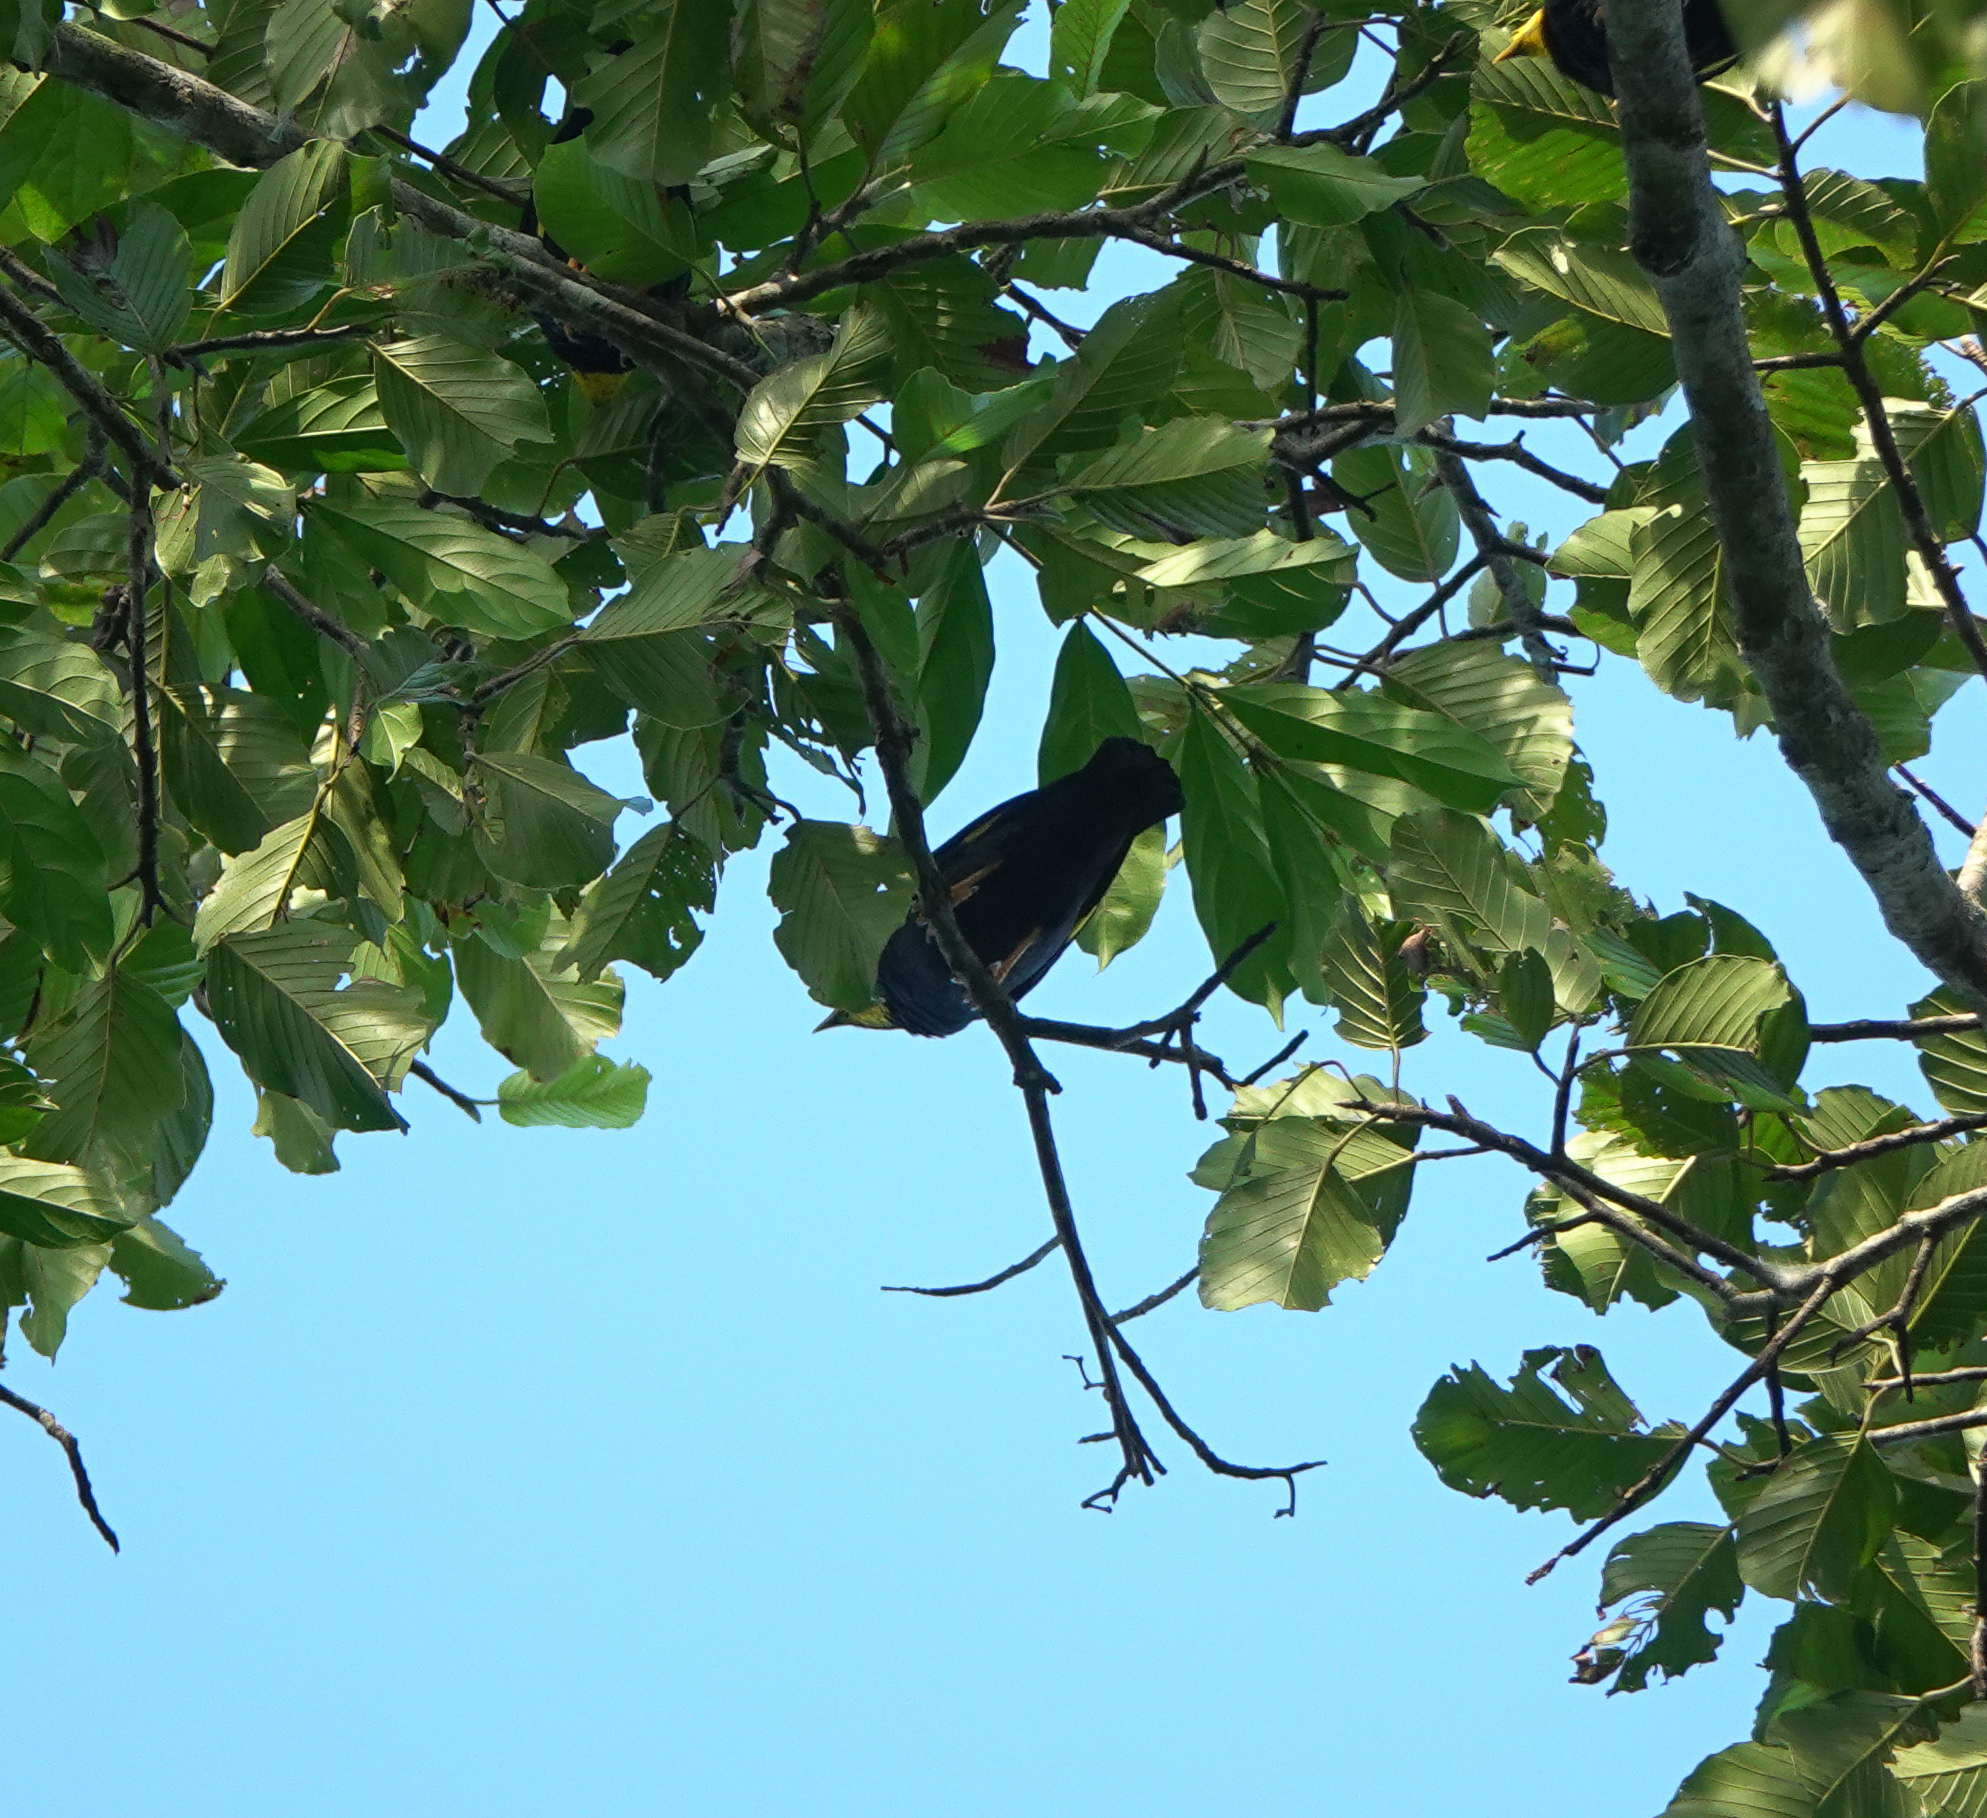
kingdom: Animalia
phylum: Chordata
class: Aves
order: Passeriformes
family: Sturnidae
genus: Ampeliceps
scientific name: Ampeliceps coronatus
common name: Golden-crested myna
